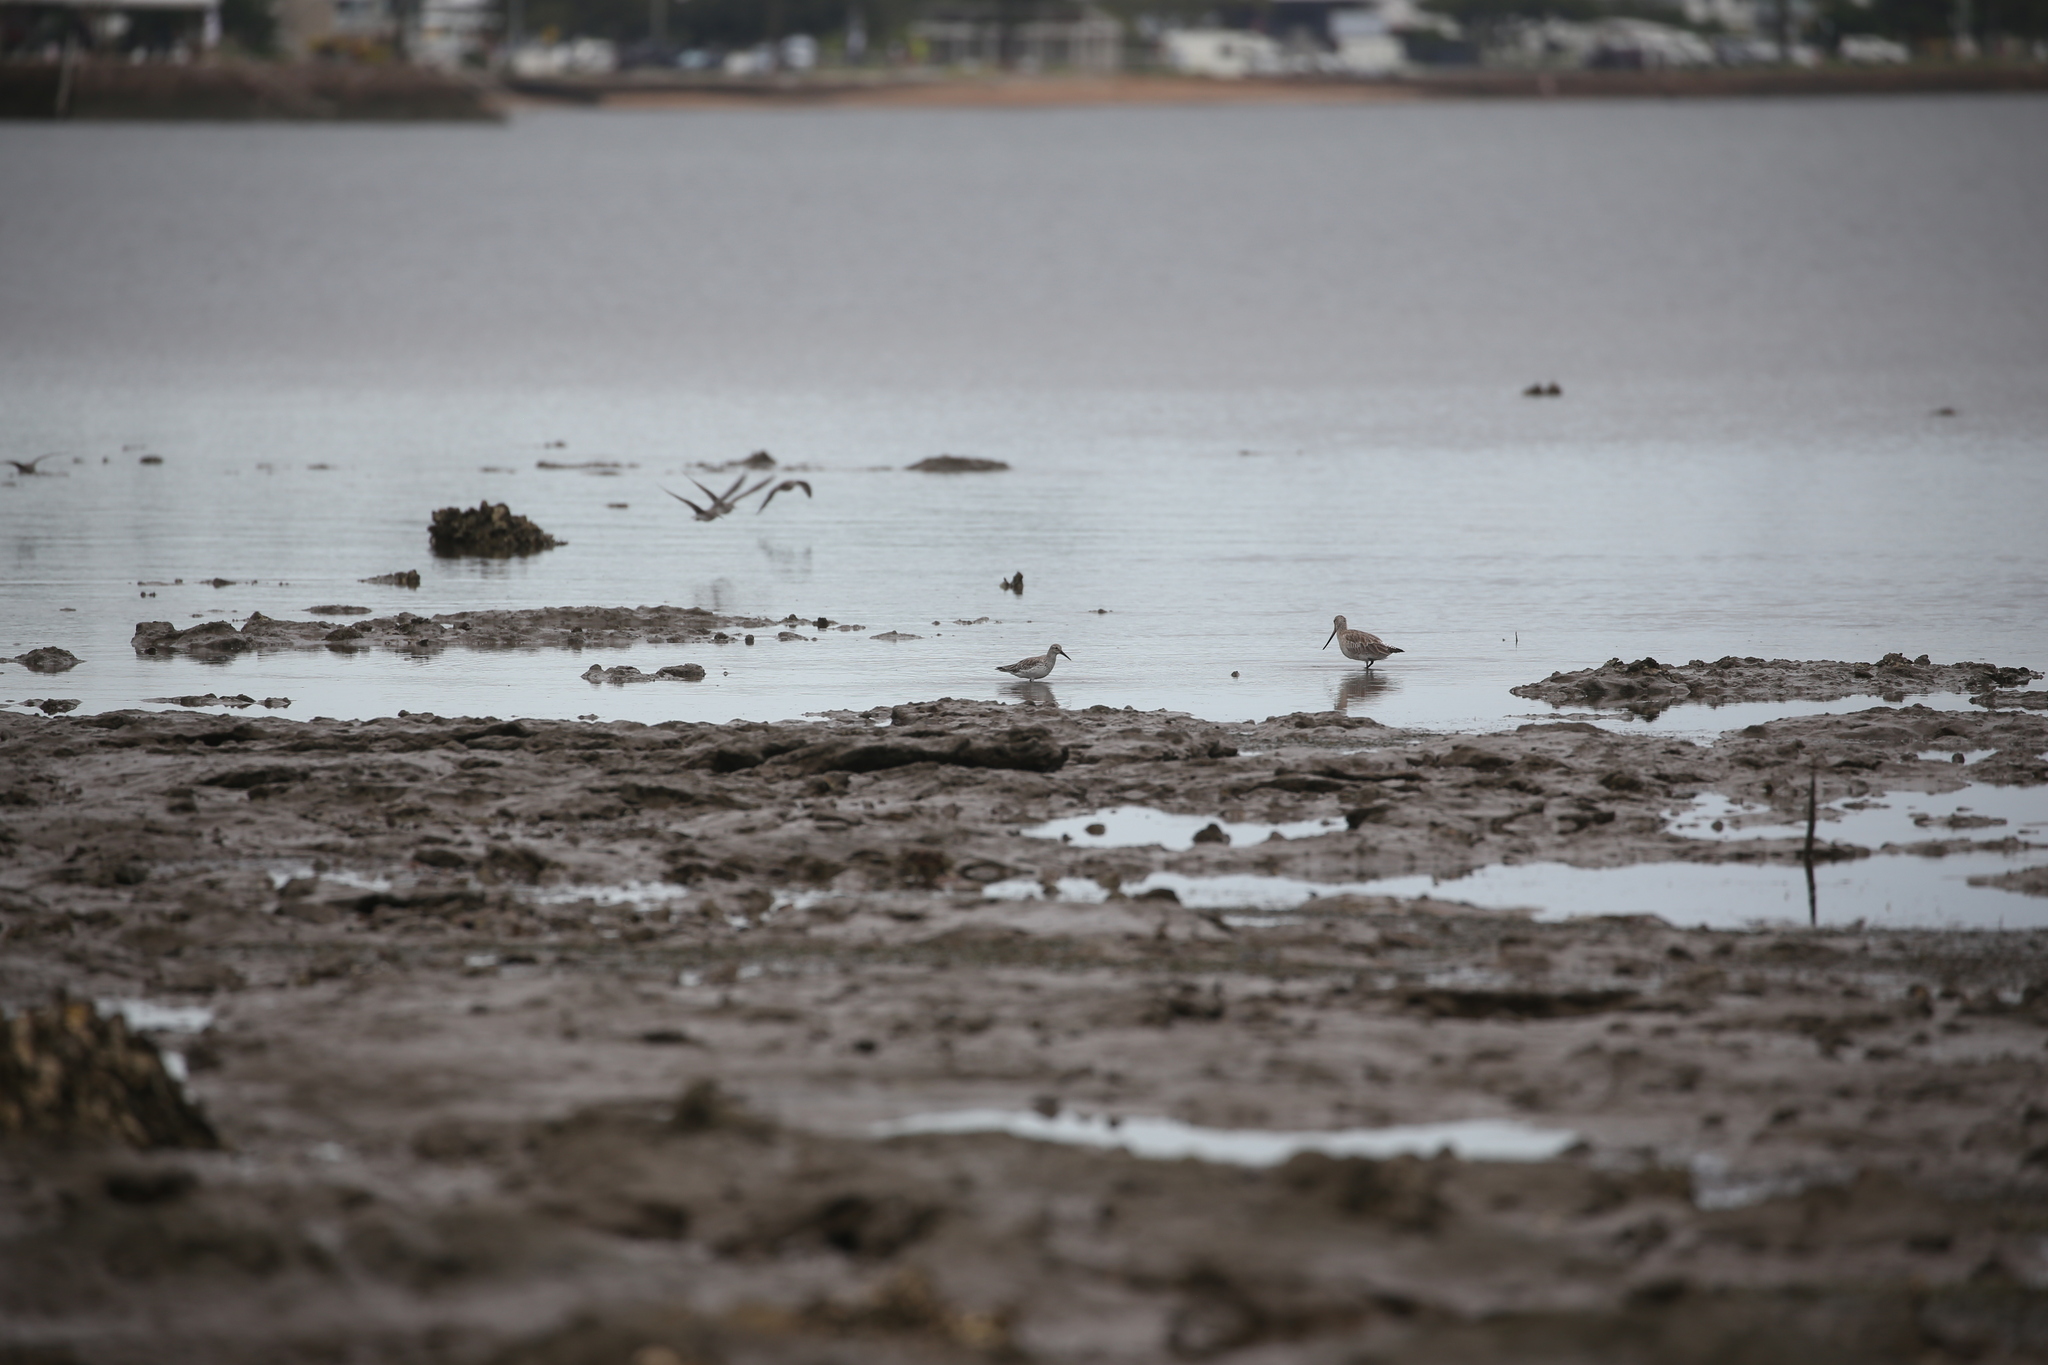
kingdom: Animalia
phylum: Chordata
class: Aves
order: Charadriiformes
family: Scolopacidae
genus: Calidris
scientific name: Calidris tenuirostris
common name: Great knot
